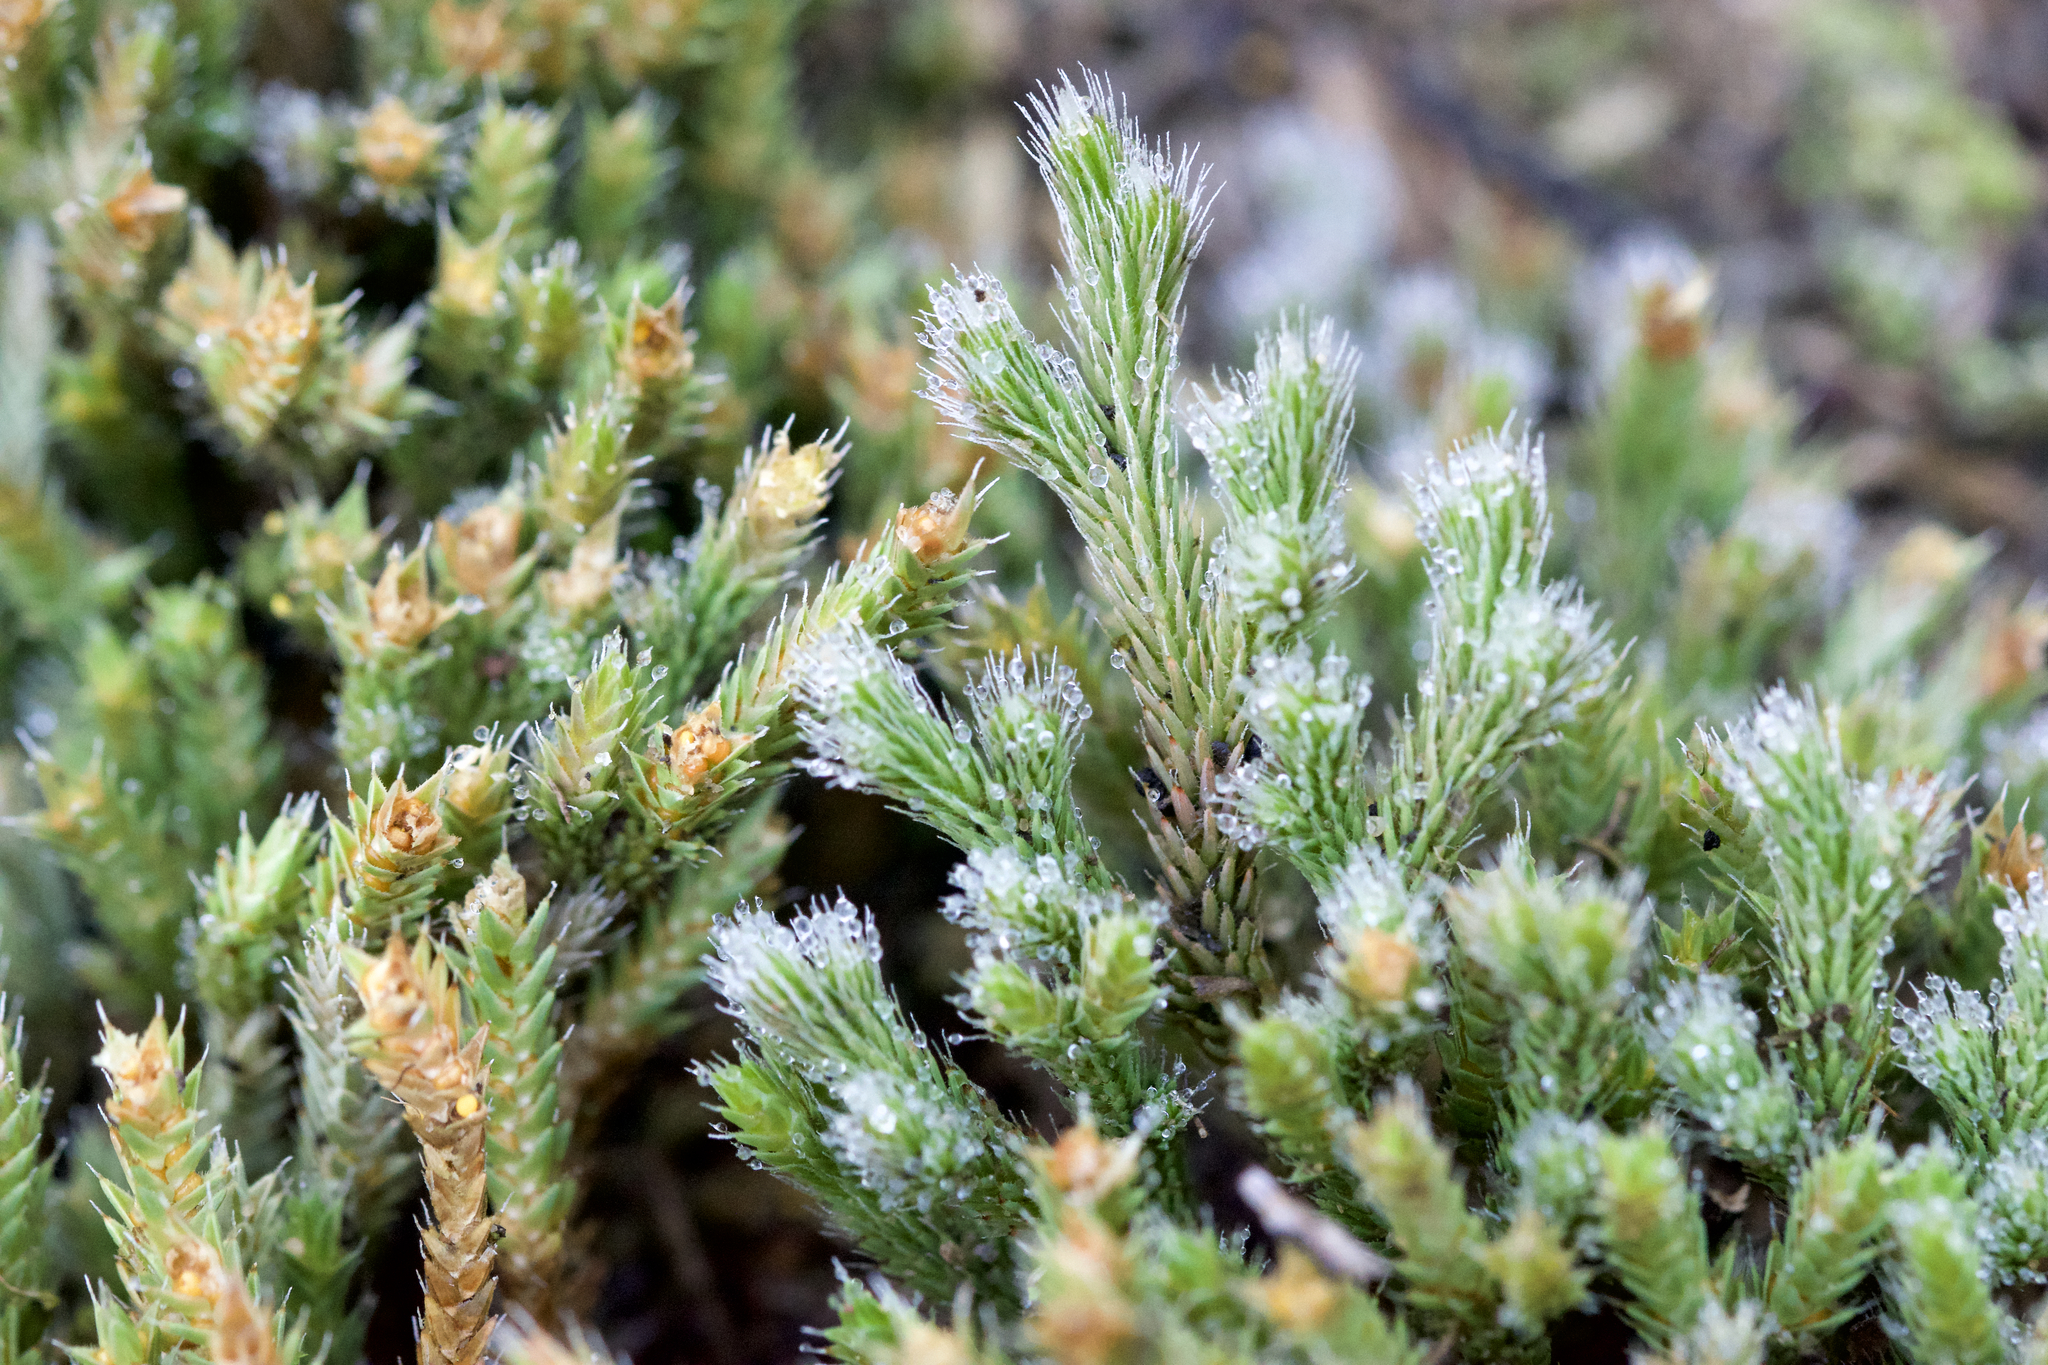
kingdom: Plantae
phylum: Tracheophyta
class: Lycopodiopsida
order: Selaginellales
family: Selaginellaceae
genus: Selaginella
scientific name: Selaginella rupestris
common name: Dwarf spikemoss
